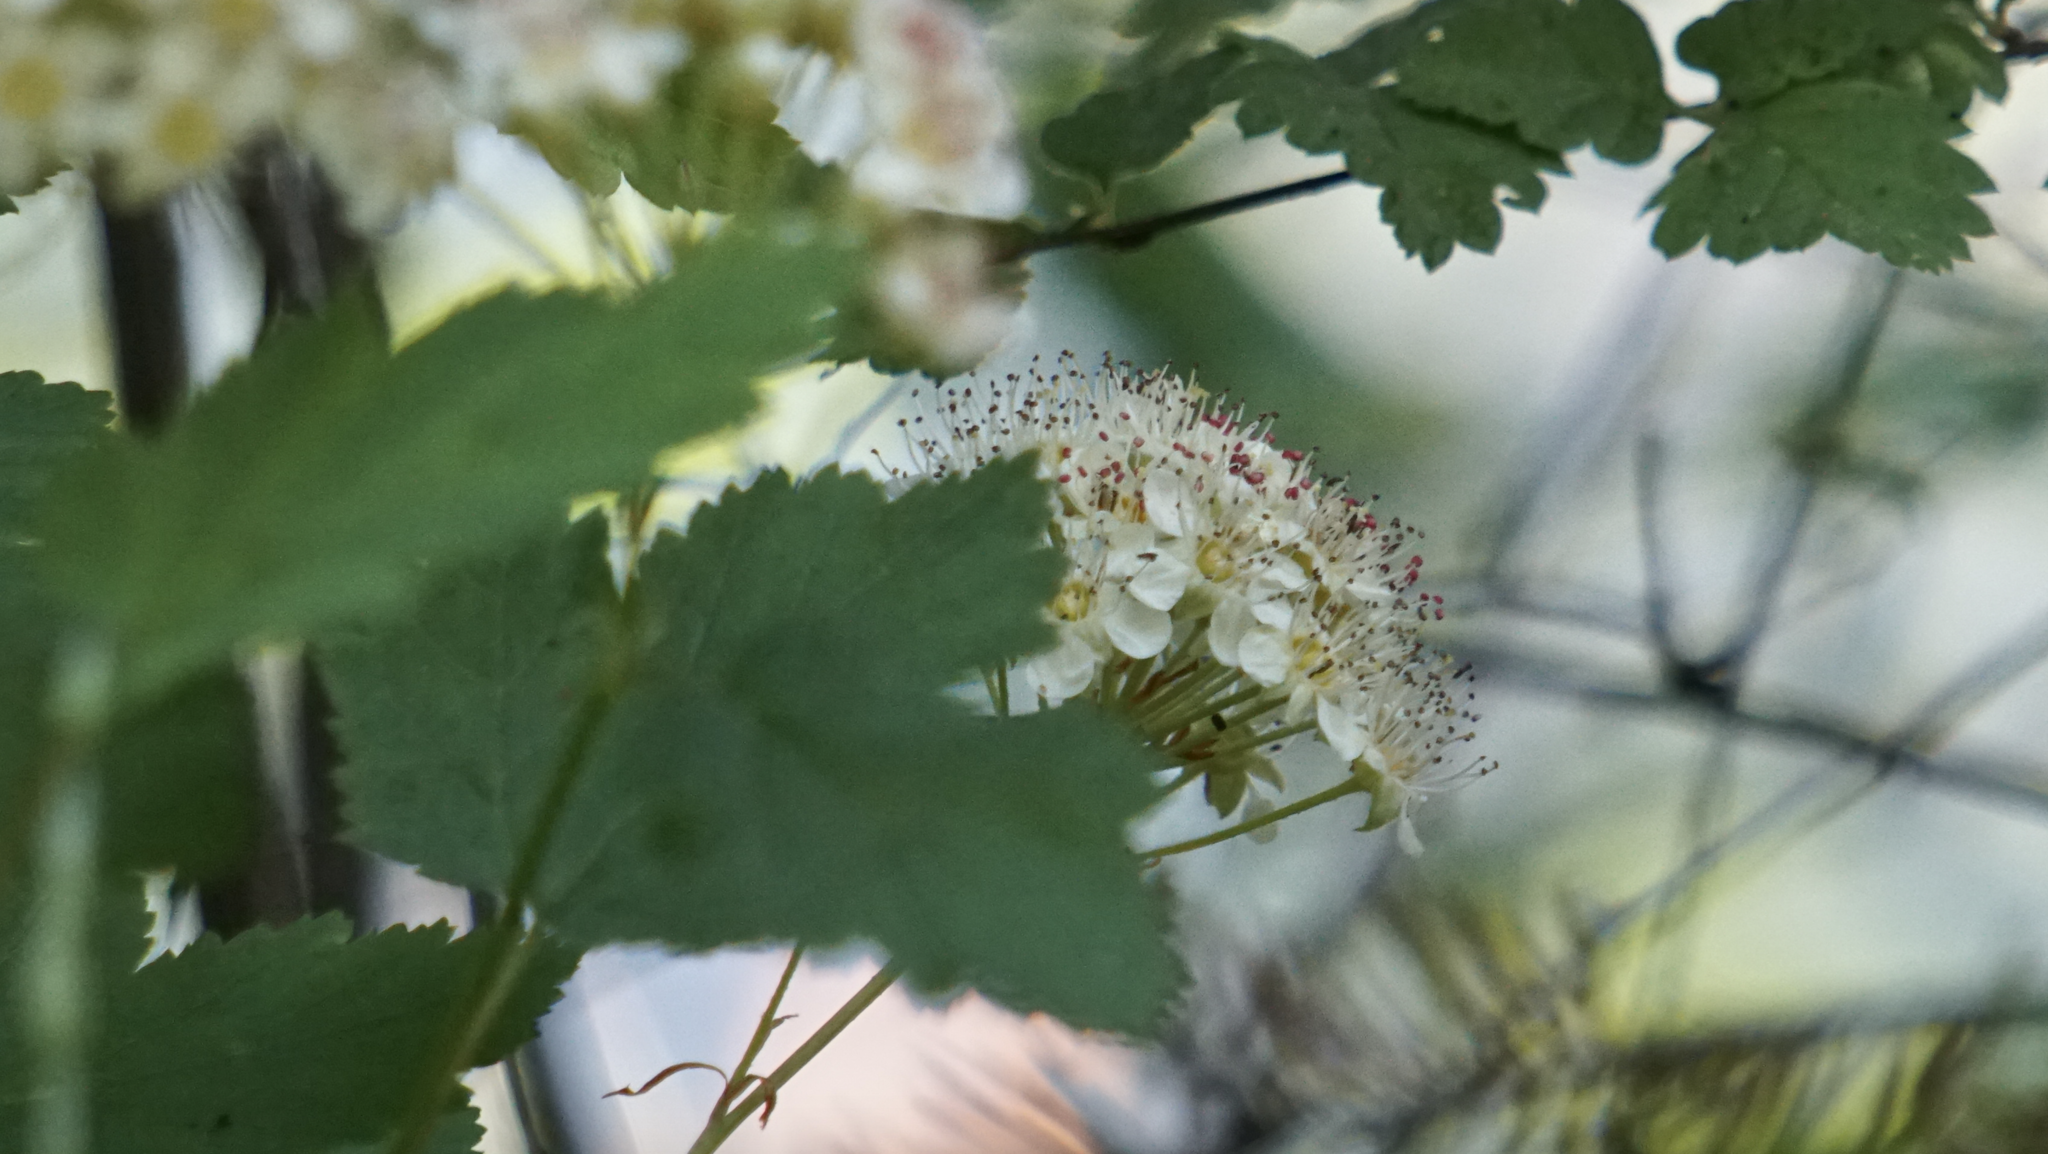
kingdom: Plantae
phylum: Tracheophyta
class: Magnoliopsida
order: Rosales
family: Rosaceae
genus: Physocarpus
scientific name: Physocarpus capitatus
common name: Pacific ninebark
